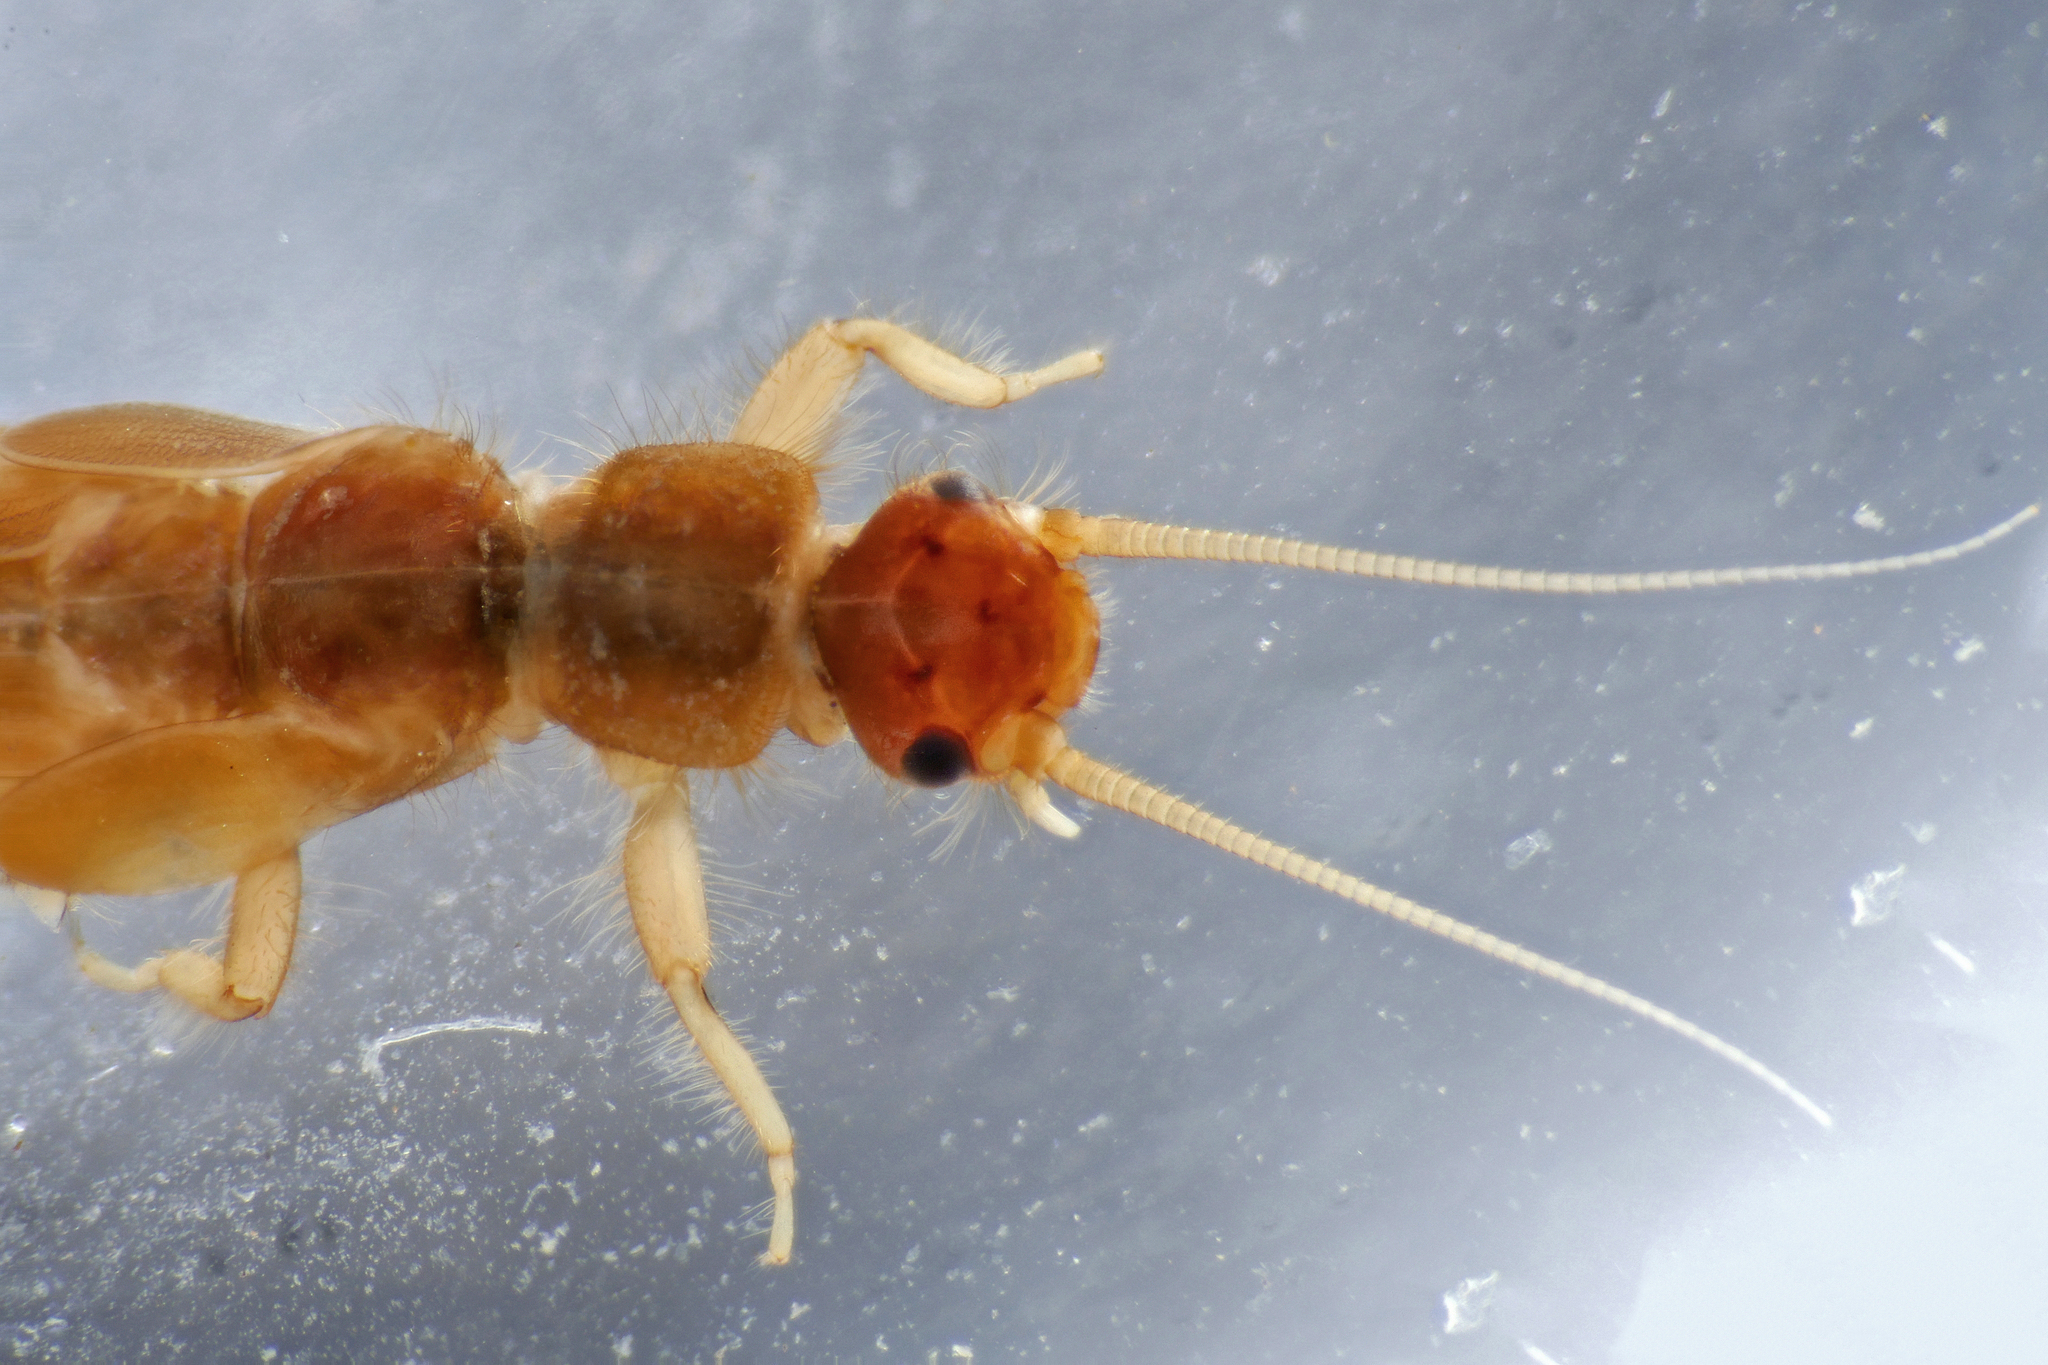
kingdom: Animalia
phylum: Arthropoda
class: Insecta
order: Plecoptera
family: Leuctridae
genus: Leuctra
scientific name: Leuctra nigra
